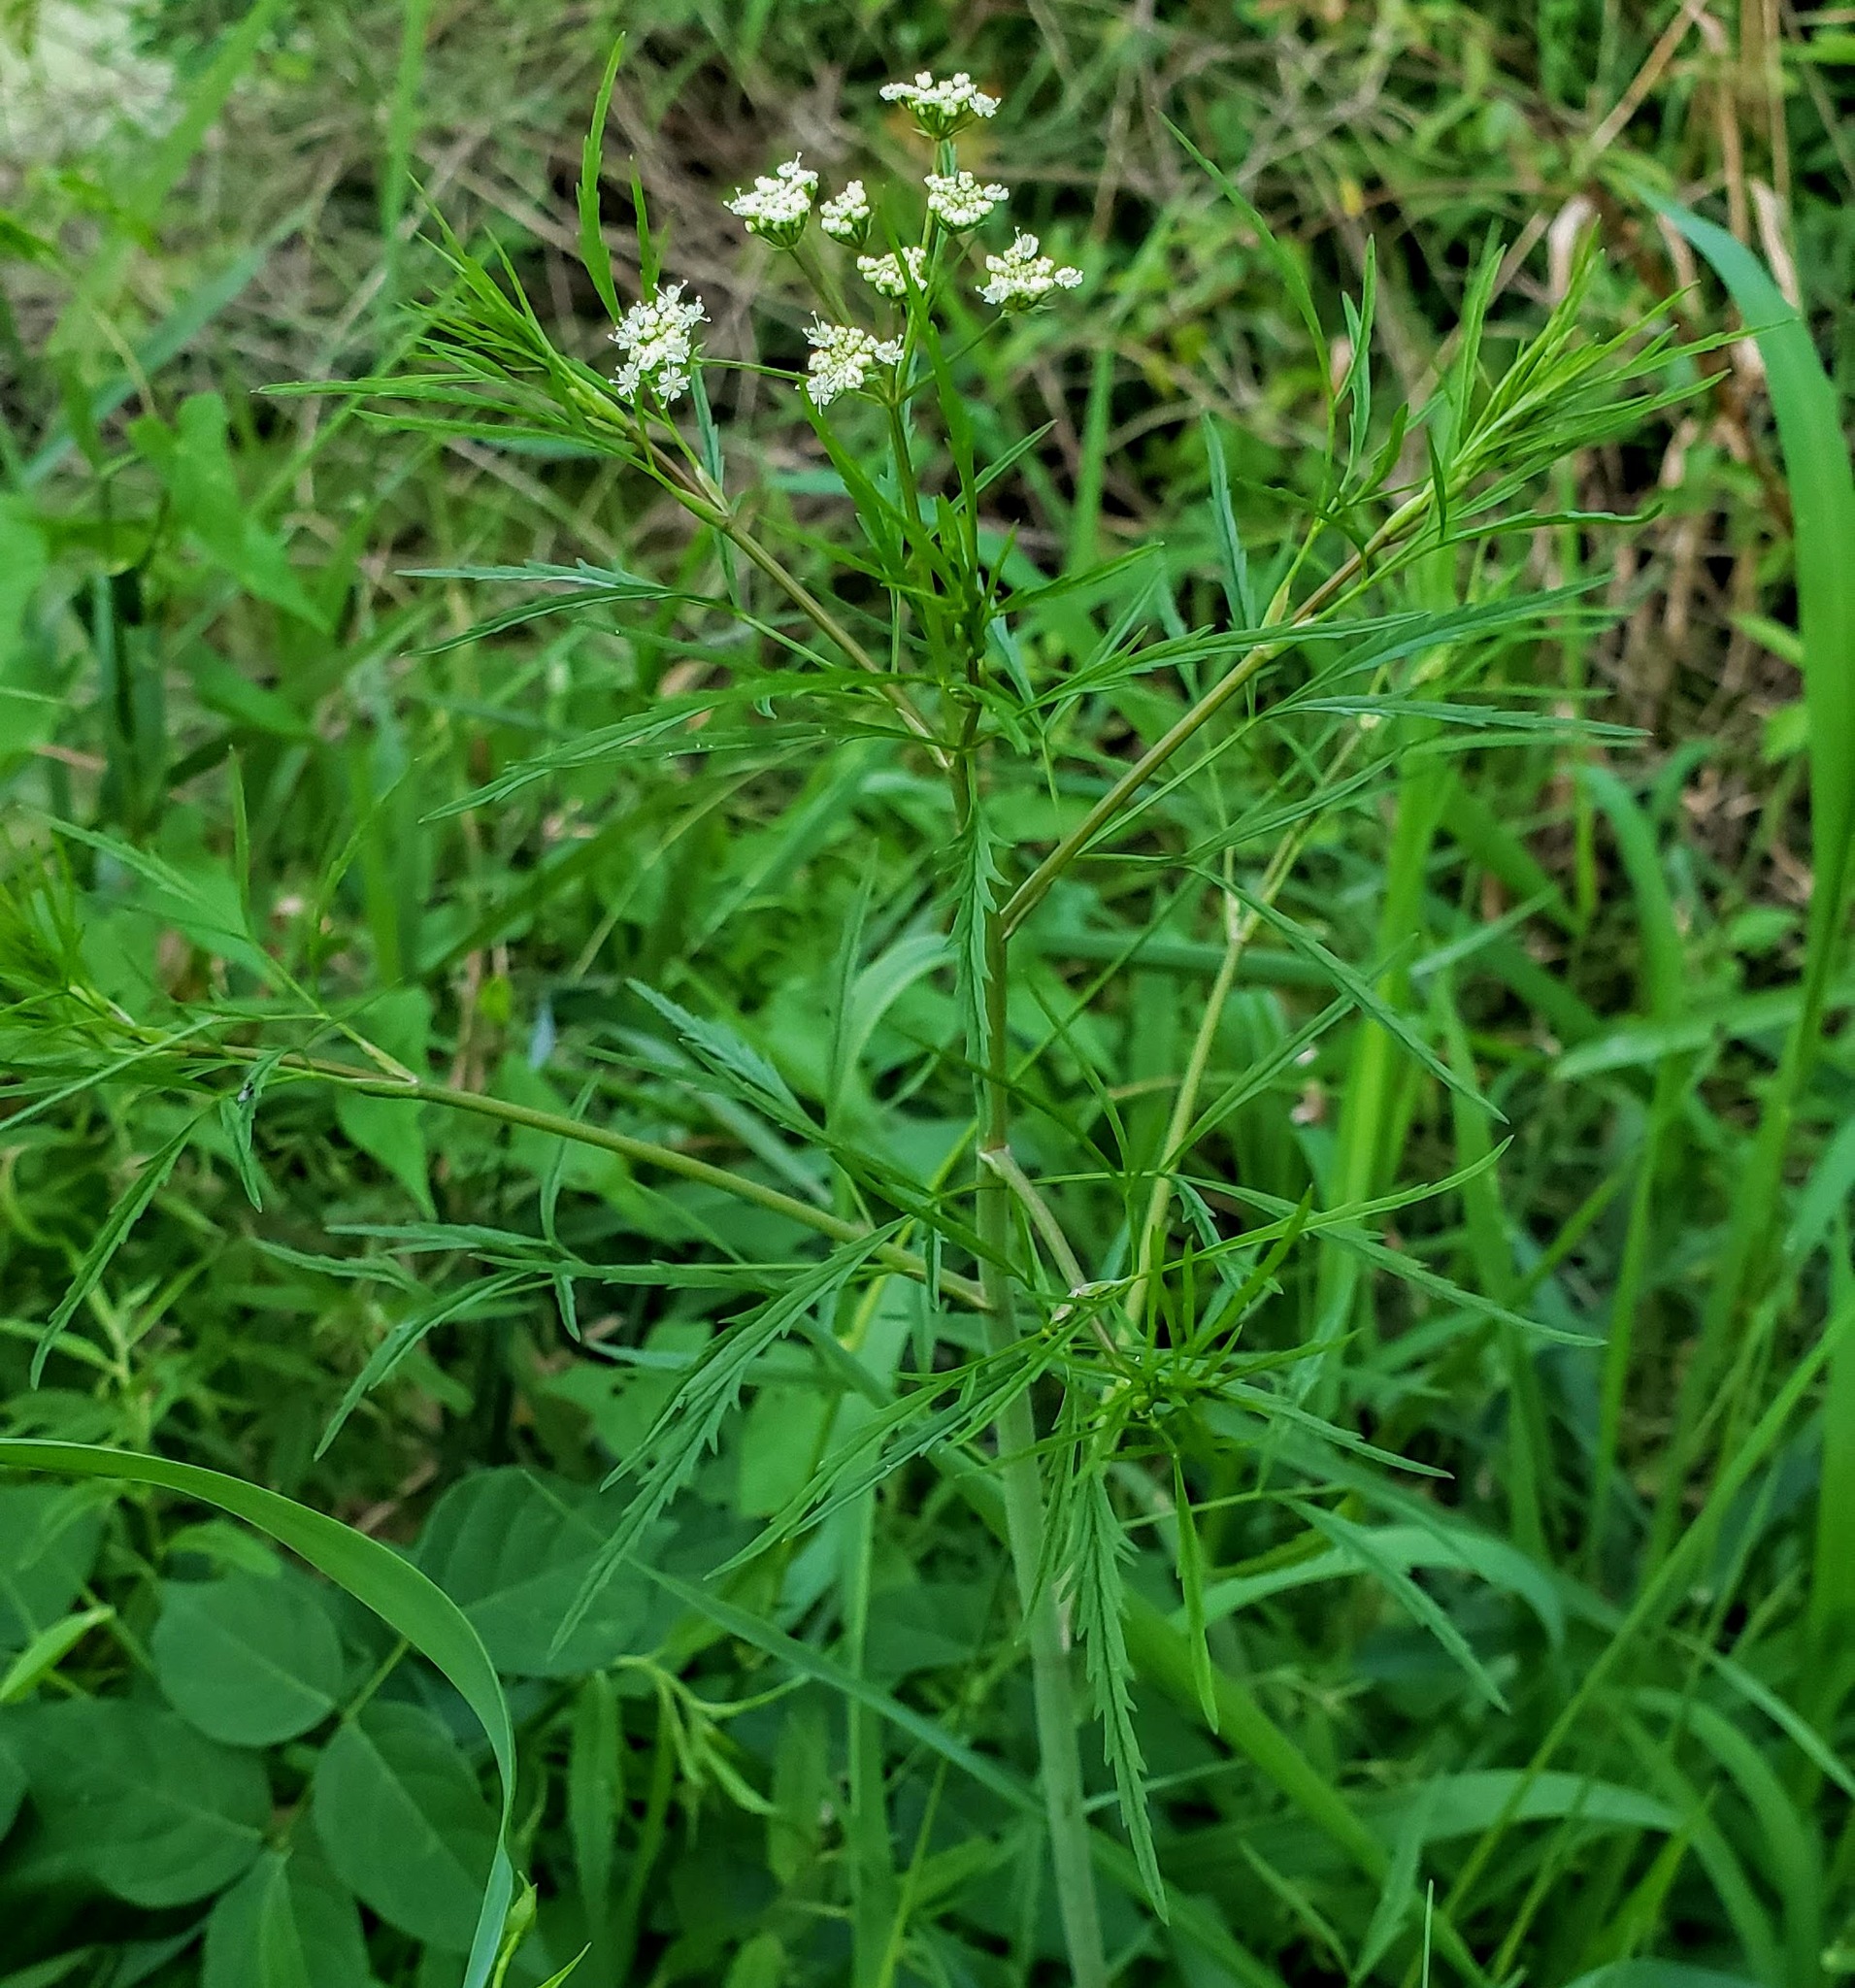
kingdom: Plantae
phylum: Tracheophyta
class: Magnoliopsida
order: Apiales
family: Apiaceae
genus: Cicuta
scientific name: Cicuta bulbifera
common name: Bulb-bearing water-hemlock
